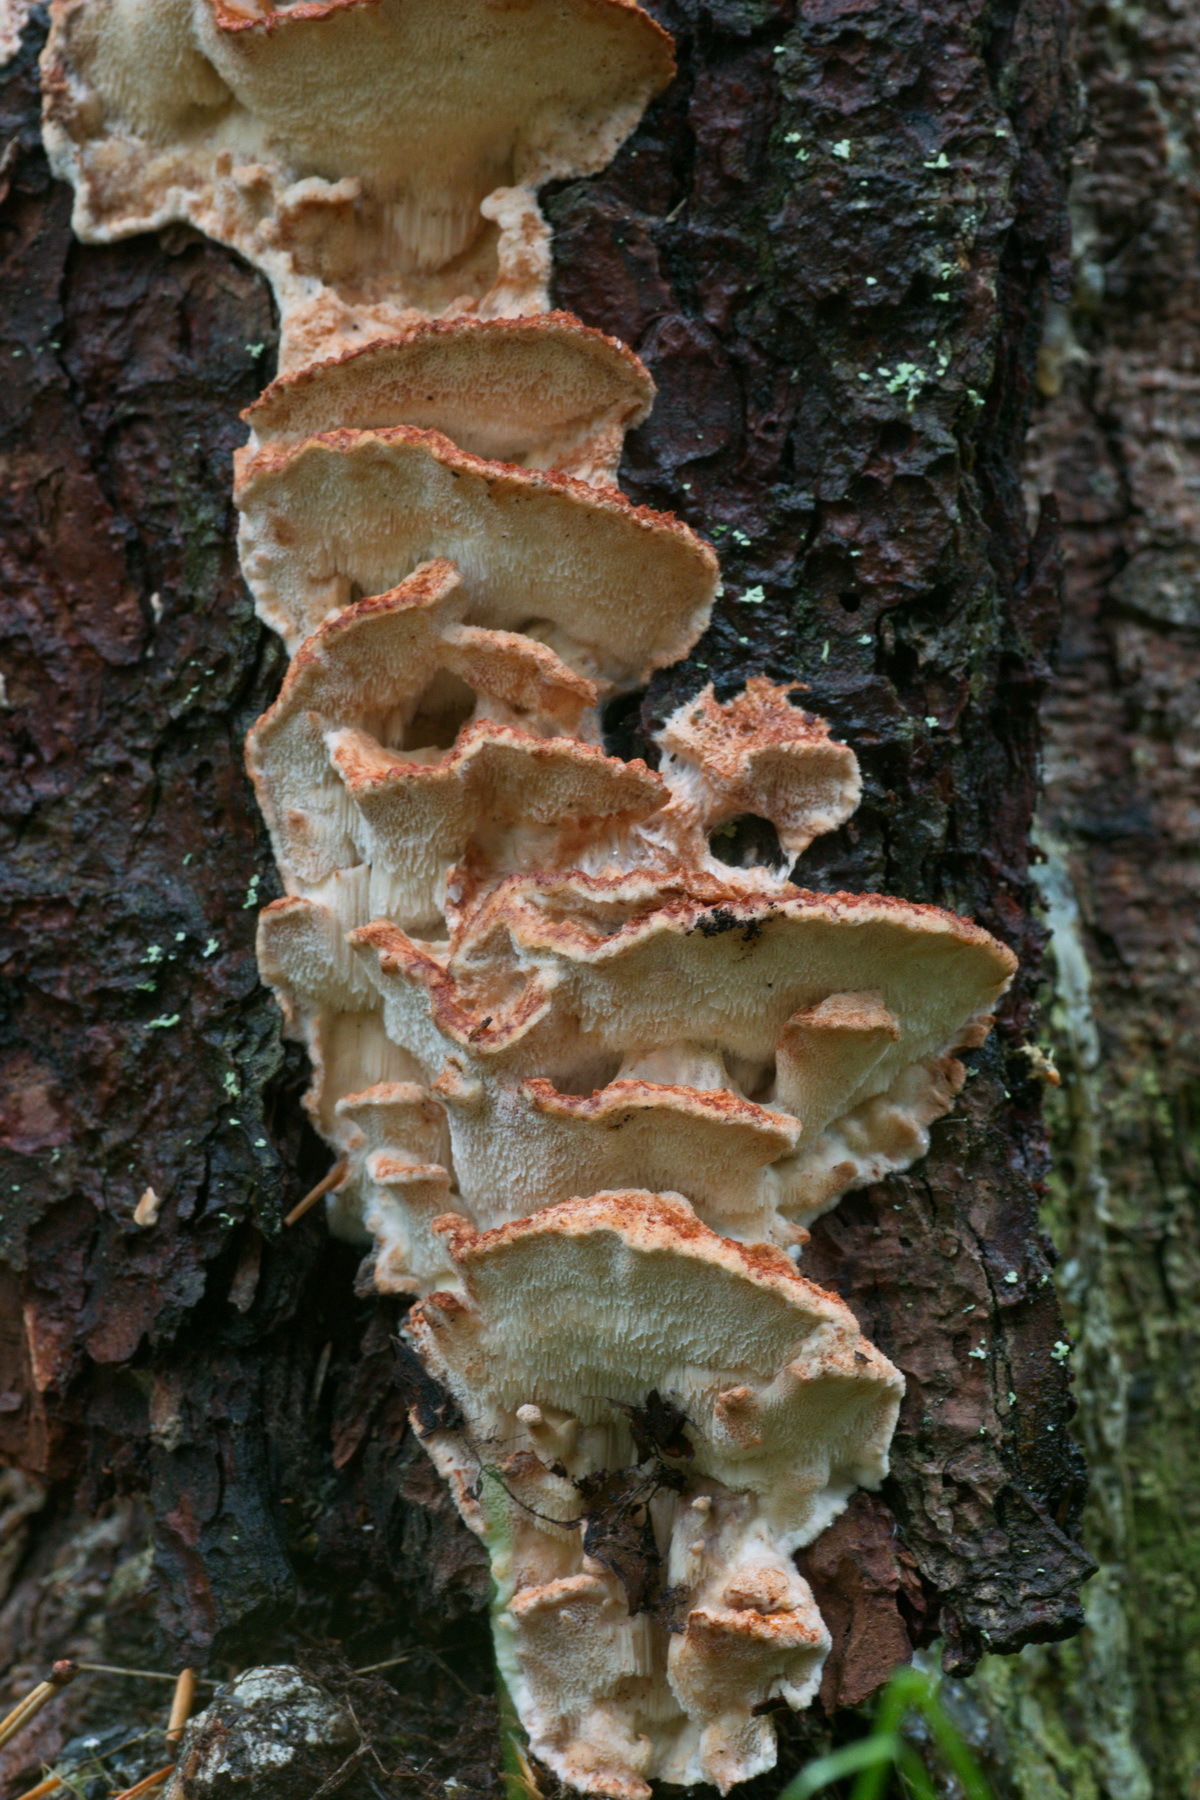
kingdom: Fungi
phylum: Basidiomycota
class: Agaricomycetes
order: Polyporales
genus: Fuscopostia
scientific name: Fuscopostia fragilis
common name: Brown-staining cheese polypore
